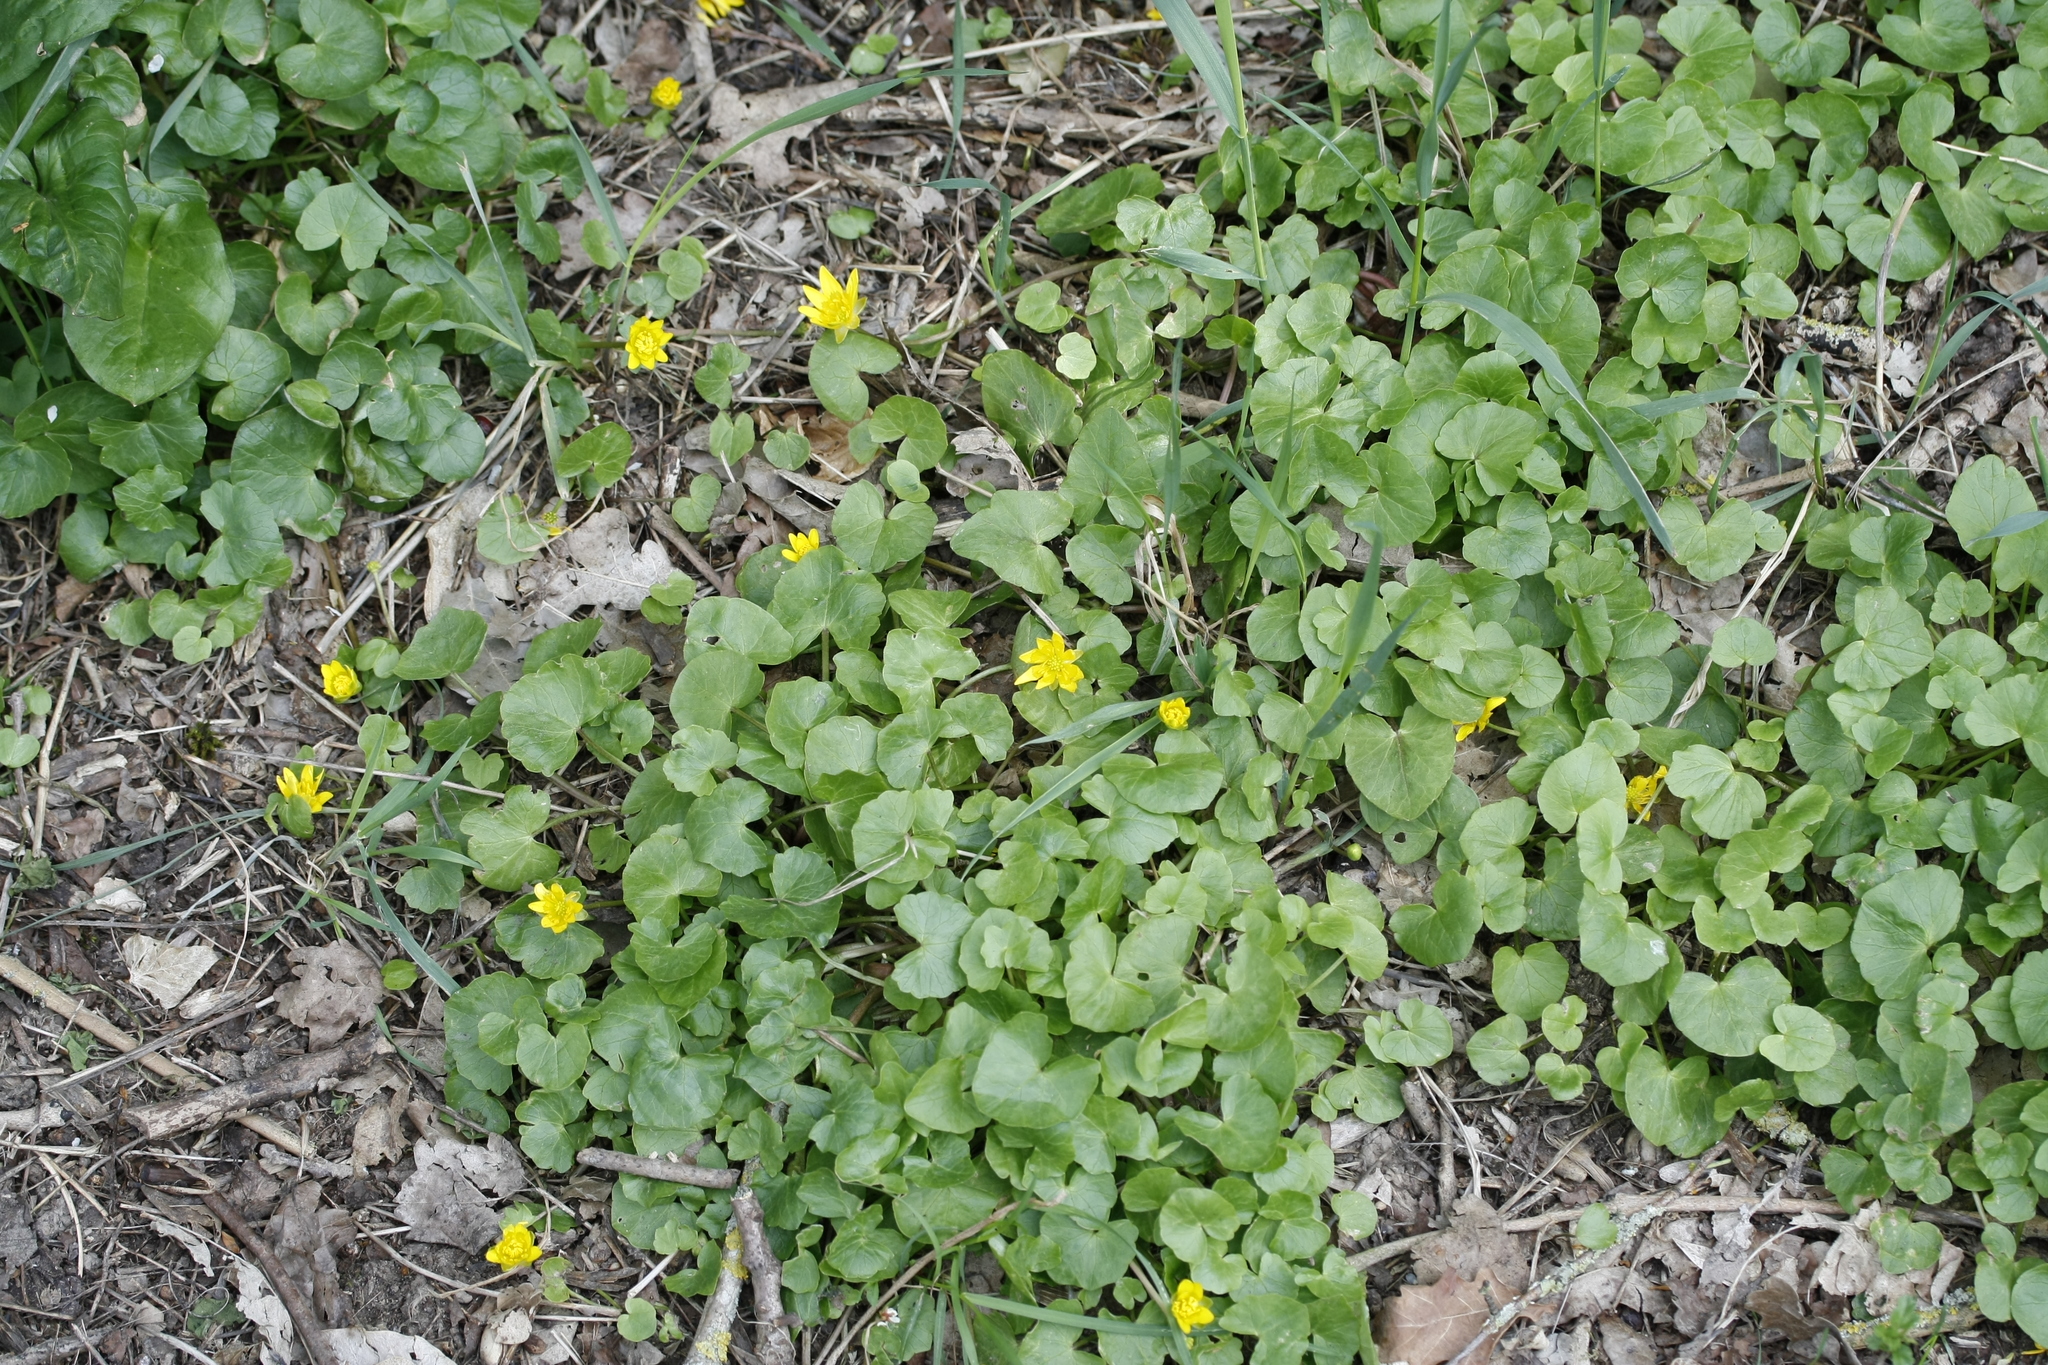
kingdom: Plantae
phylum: Tracheophyta
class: Magnoliopsida
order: Ranunculales
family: Ranunculaceae
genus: Ficaria
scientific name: Ficaria verna
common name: Lesser celandine
